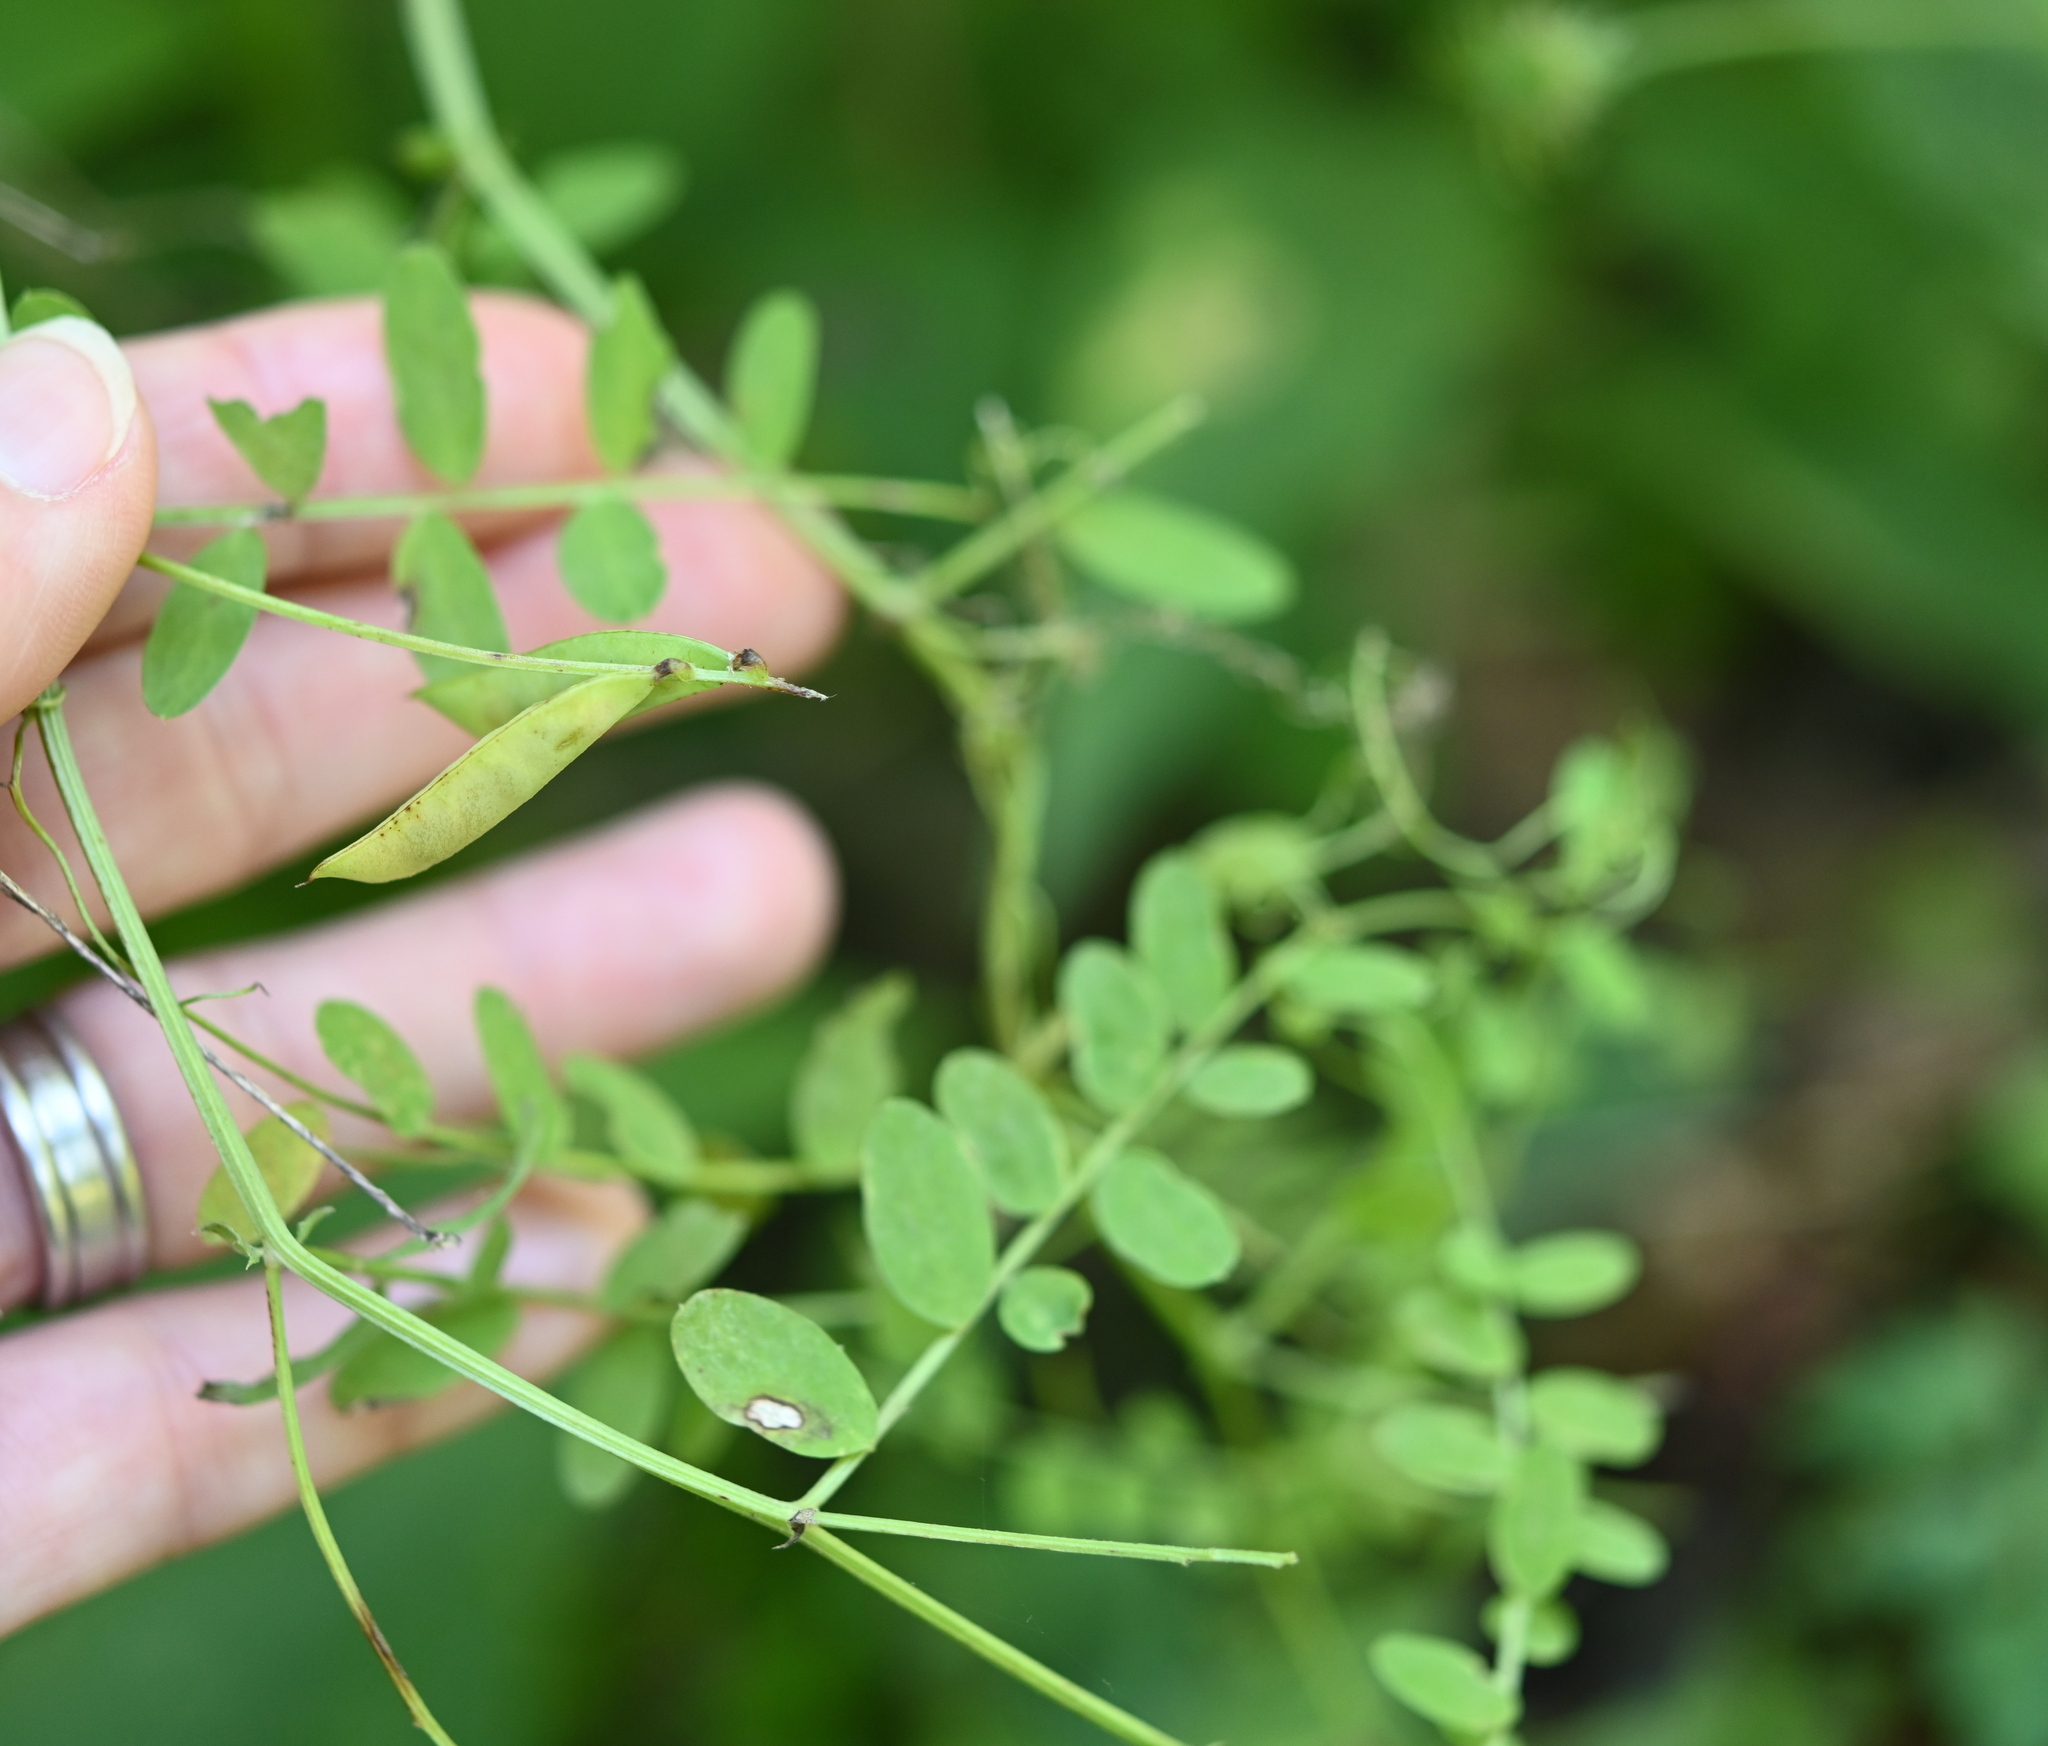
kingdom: Plantae
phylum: Tracheophyta
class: Magnoliopsida
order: Fabales
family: Fabaceae
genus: Vicia
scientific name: Vicia ludoviciana
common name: Louisiana vetch
